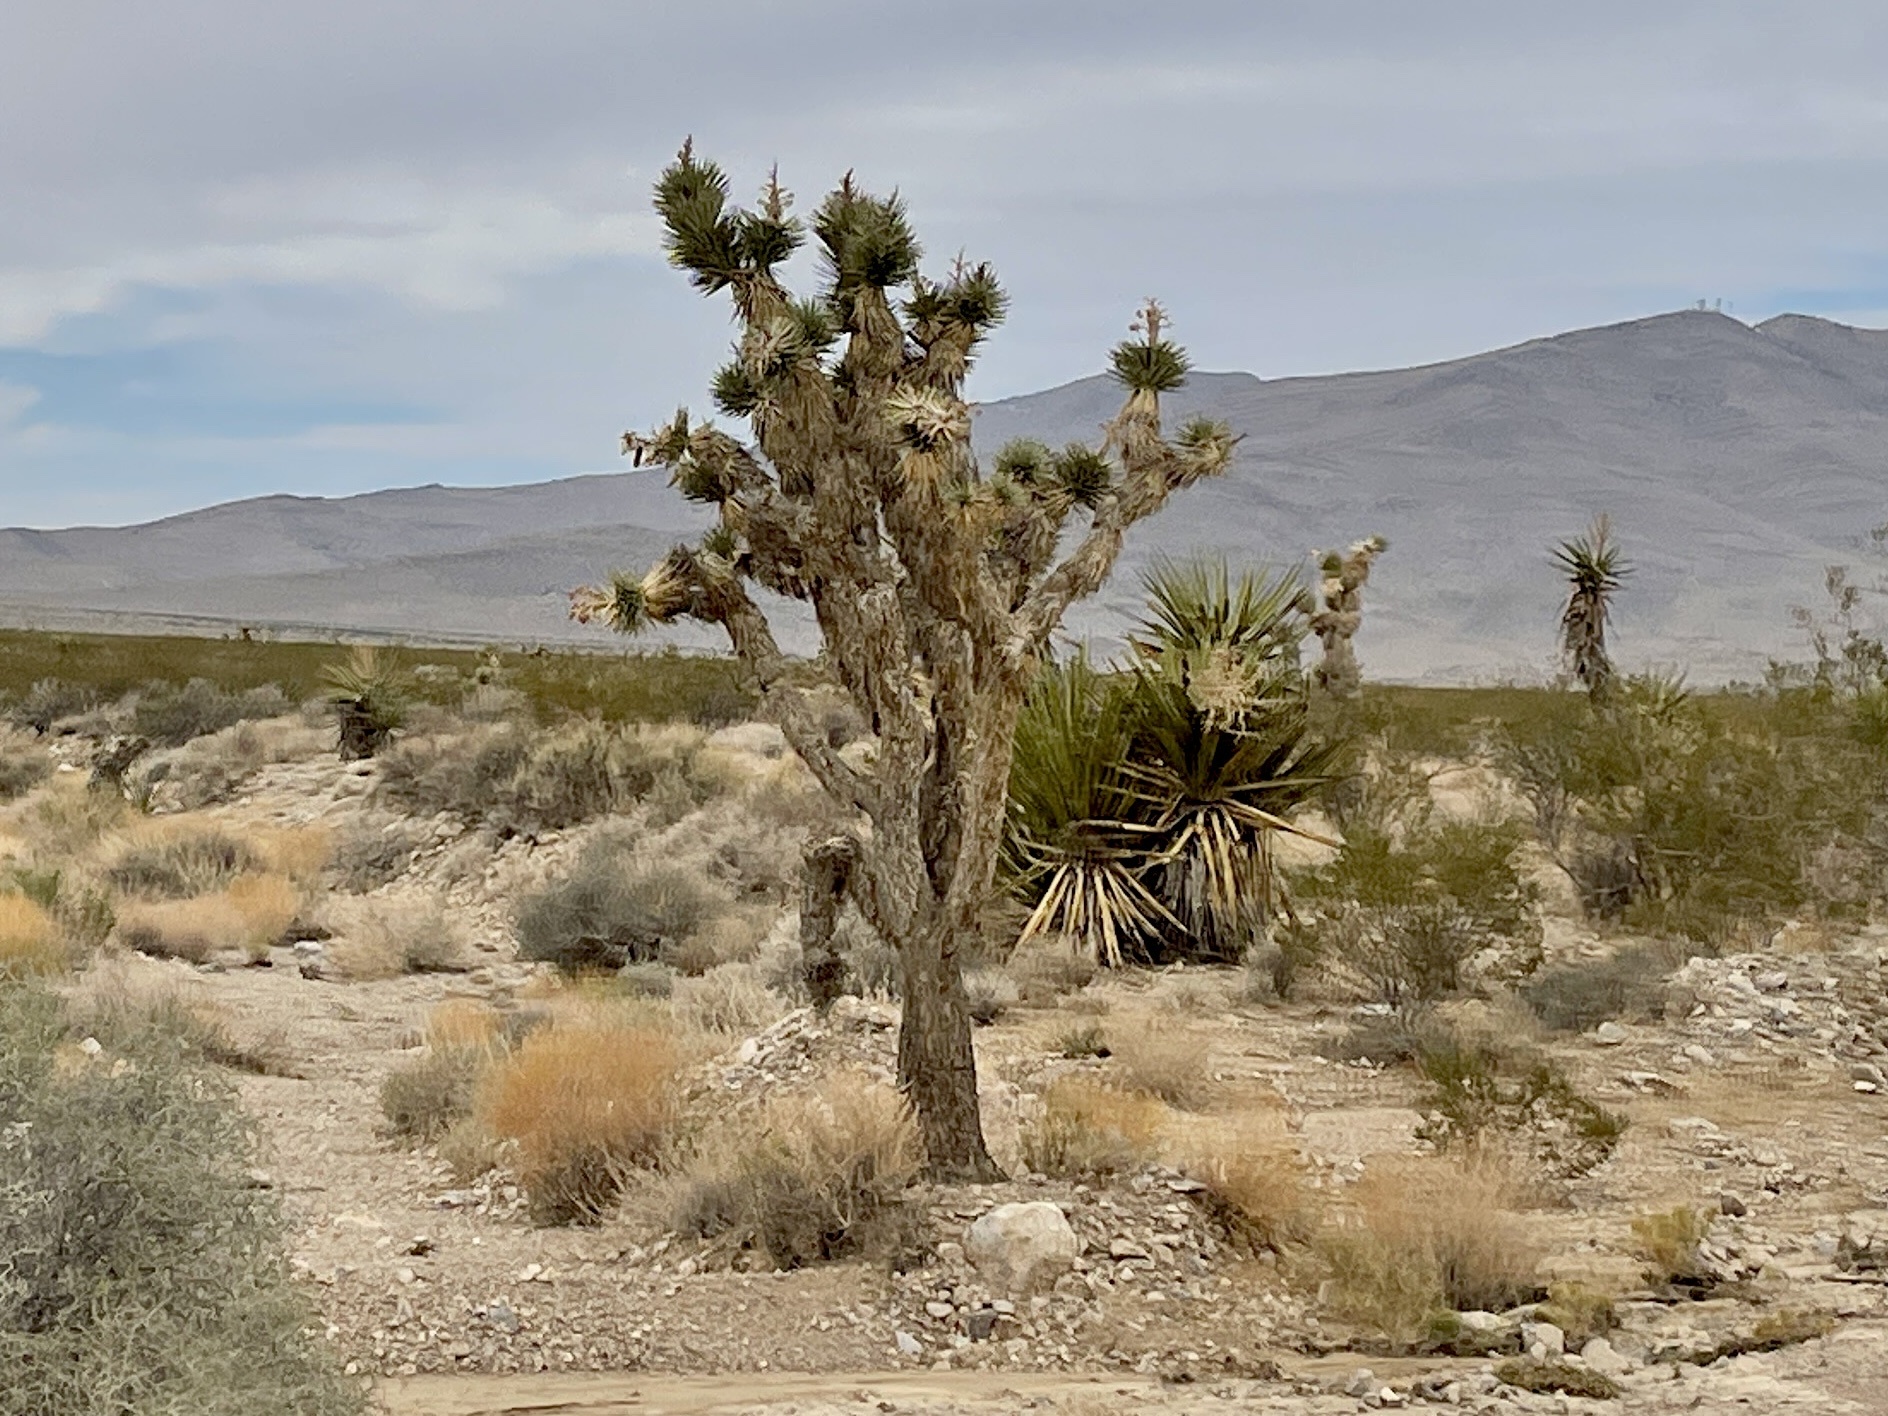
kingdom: Plantae
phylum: Tracheophyta
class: Liliopsida
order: Asparagales
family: Asparagaceae
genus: Yucca
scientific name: Yucca brevifolia
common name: Joshua tree
